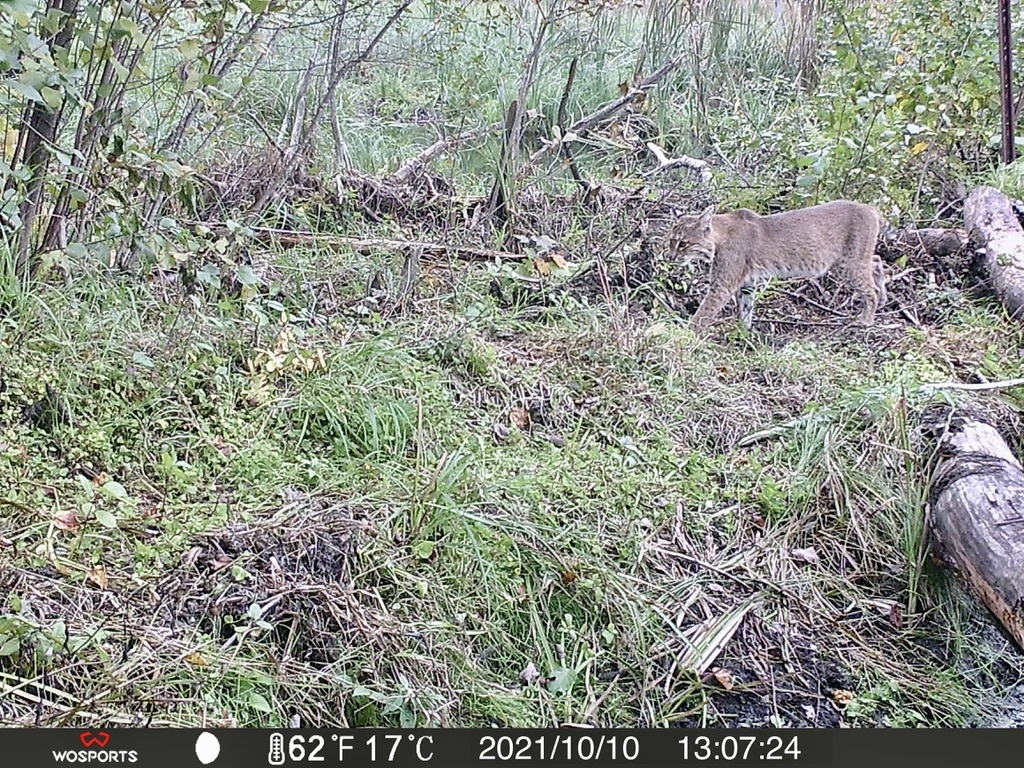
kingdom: Animalia
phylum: Chordata
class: Mammalia
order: Carnivora
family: Felidae
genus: Lynx
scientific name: Lynx rufus
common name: Bobcat
